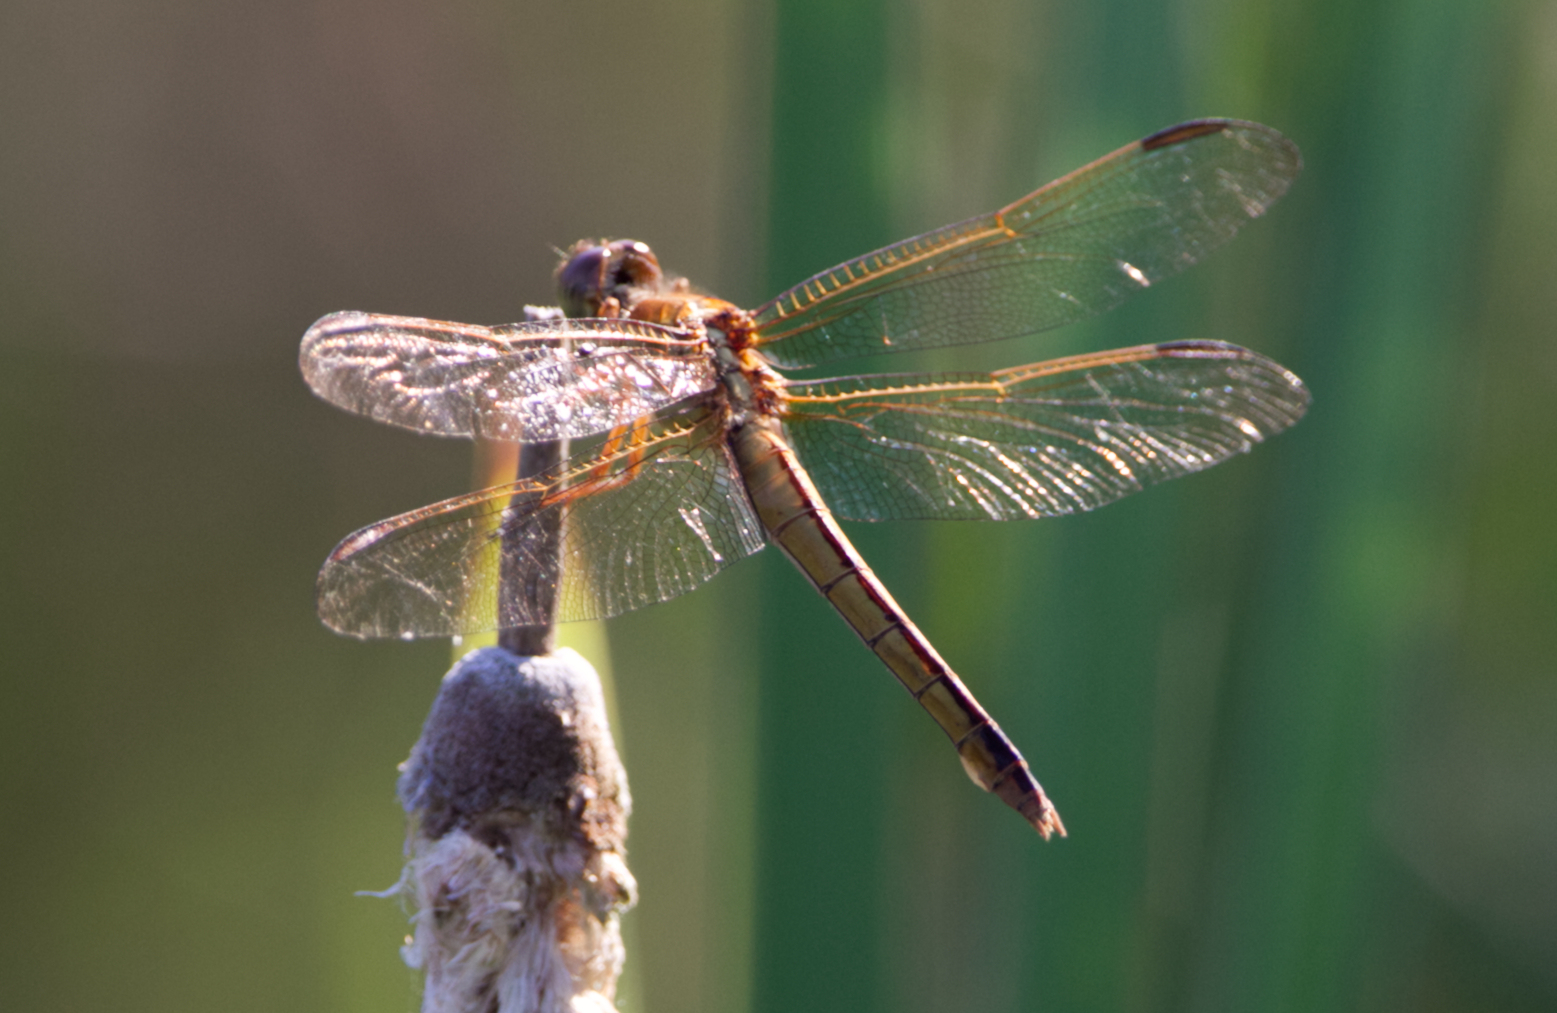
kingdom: Animalia
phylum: Arthropoda
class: Insecta
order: Odonata
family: Libellulidae
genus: Libellula
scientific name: Libellula needhami
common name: Needham's skimmer
